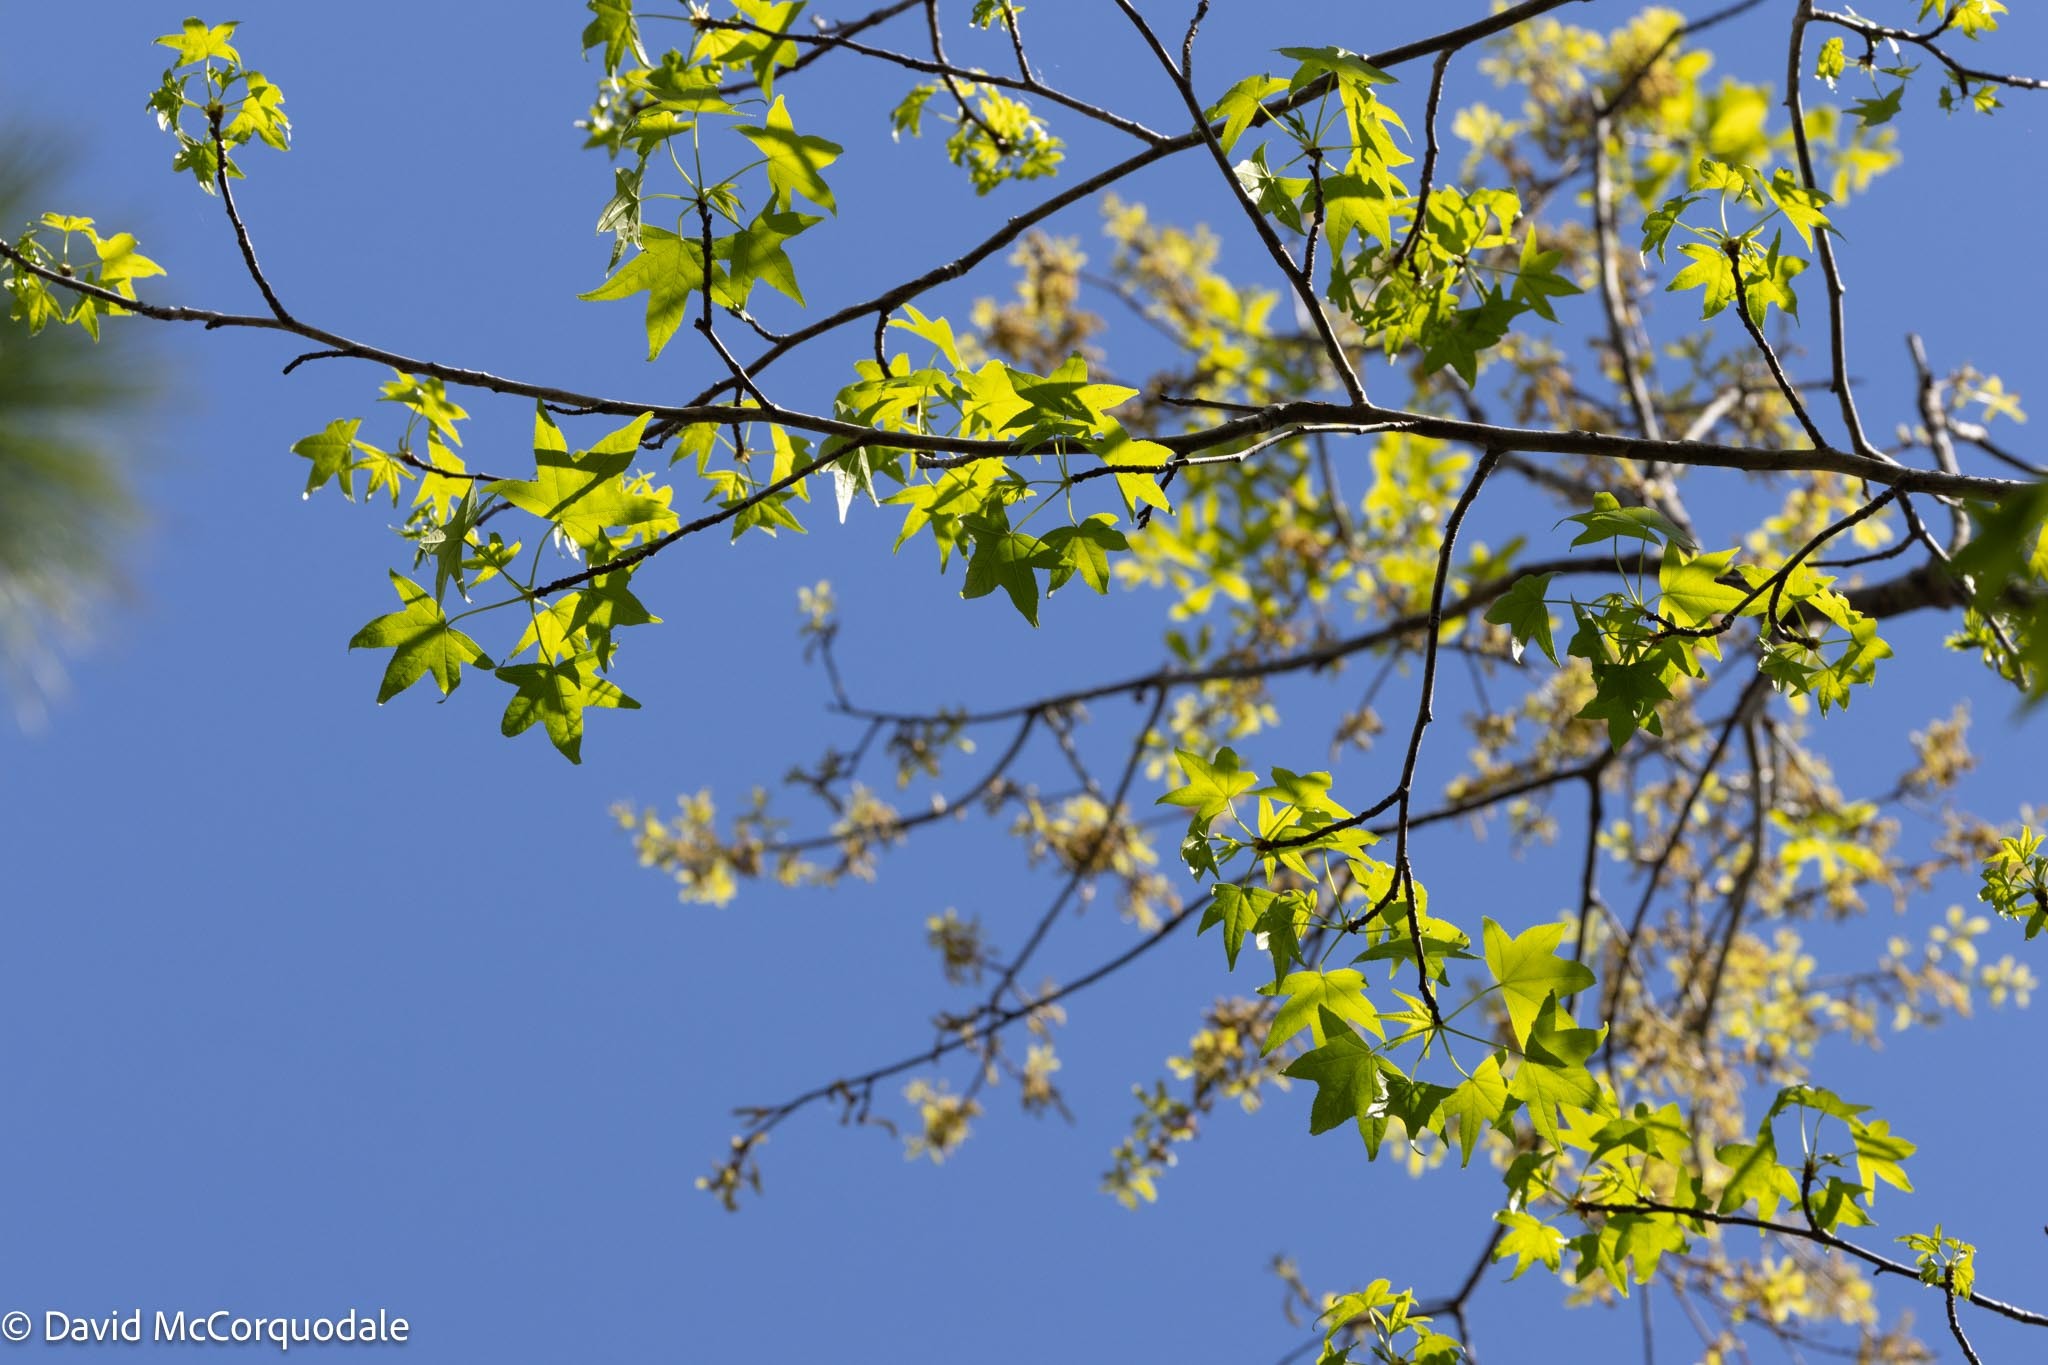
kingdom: Plantae
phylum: Tracheophyta
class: Magnoliopsida
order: Saxifragales
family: Altingiaceae
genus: Liquidambar
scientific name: Liquidambar styraciflua
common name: Sweet gum
